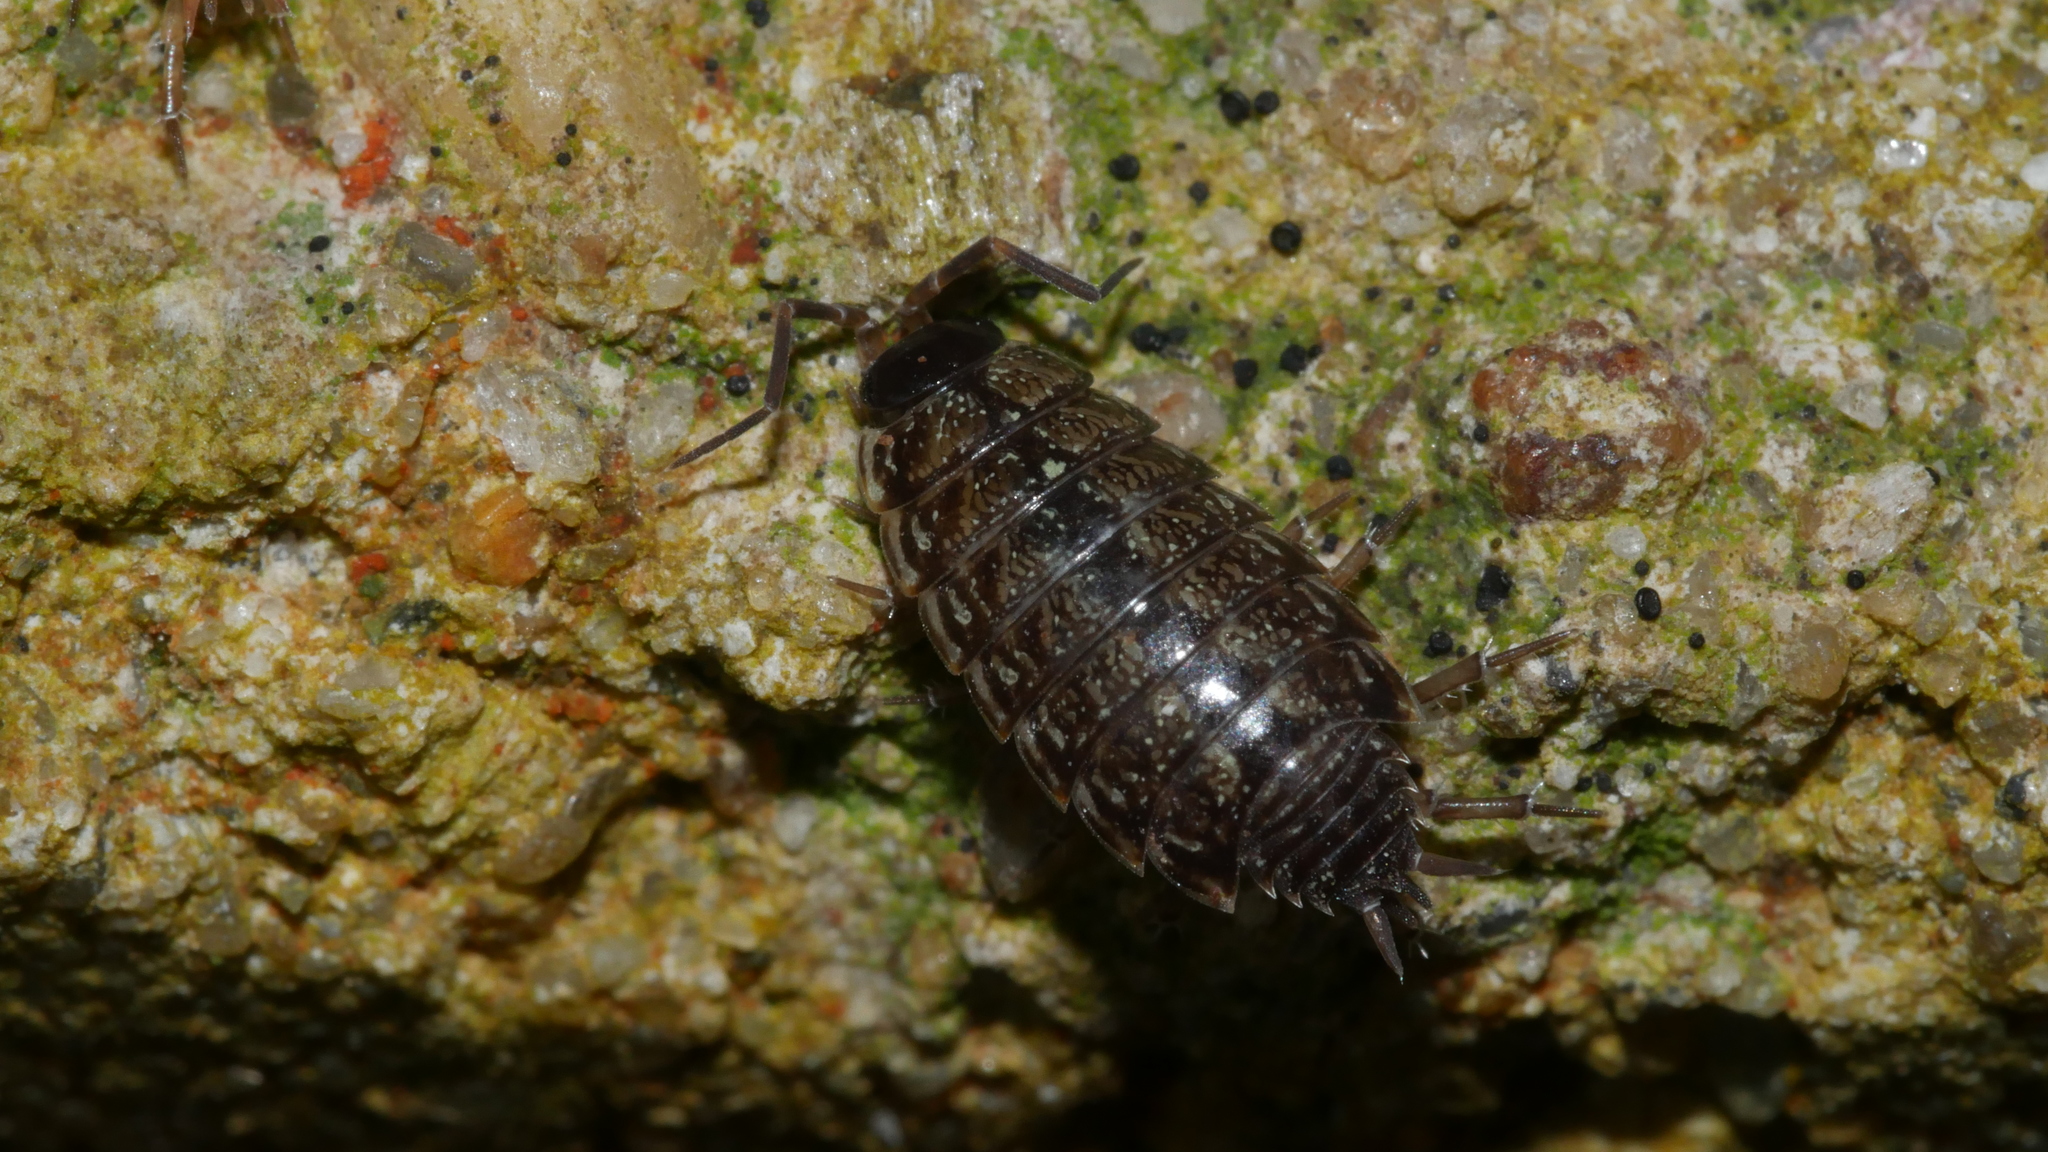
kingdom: Animalia
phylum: Arthropoda
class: Malacostraca
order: Isopoda
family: Philosciidae
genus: Philoscia
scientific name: Philoscia muscorum
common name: Common striped woodlouse
